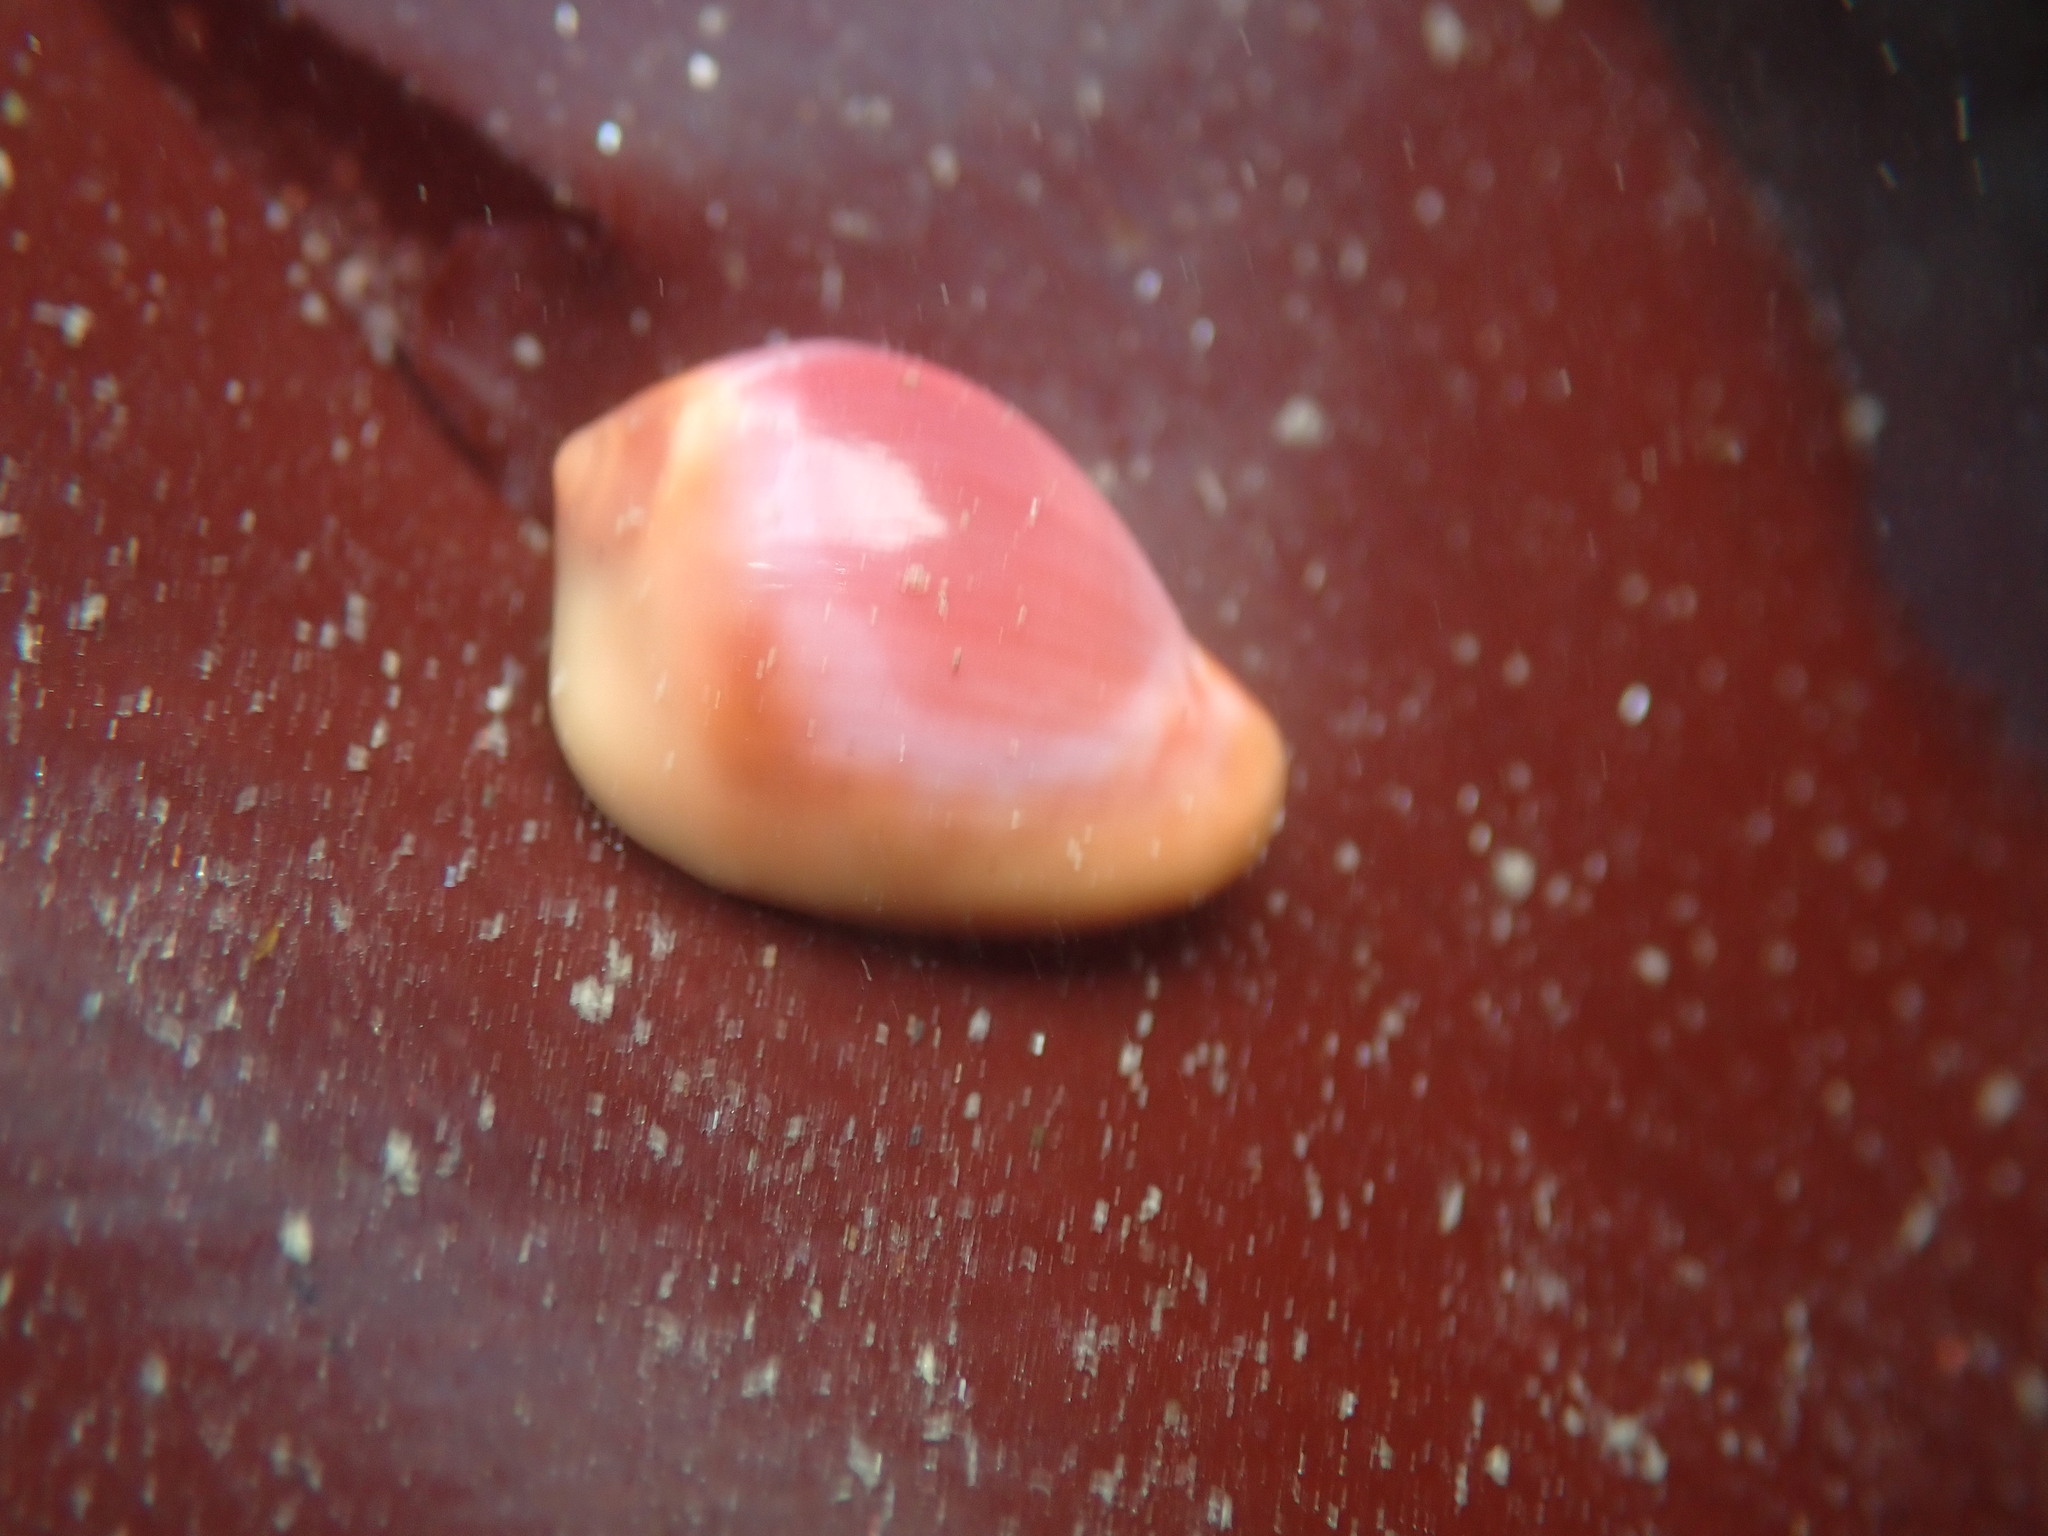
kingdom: Animalia
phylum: Mollusca
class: Gastropoda
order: Littorinimorpha
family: Eratoidae
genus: Hespererato
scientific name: Hespererato vitellina
